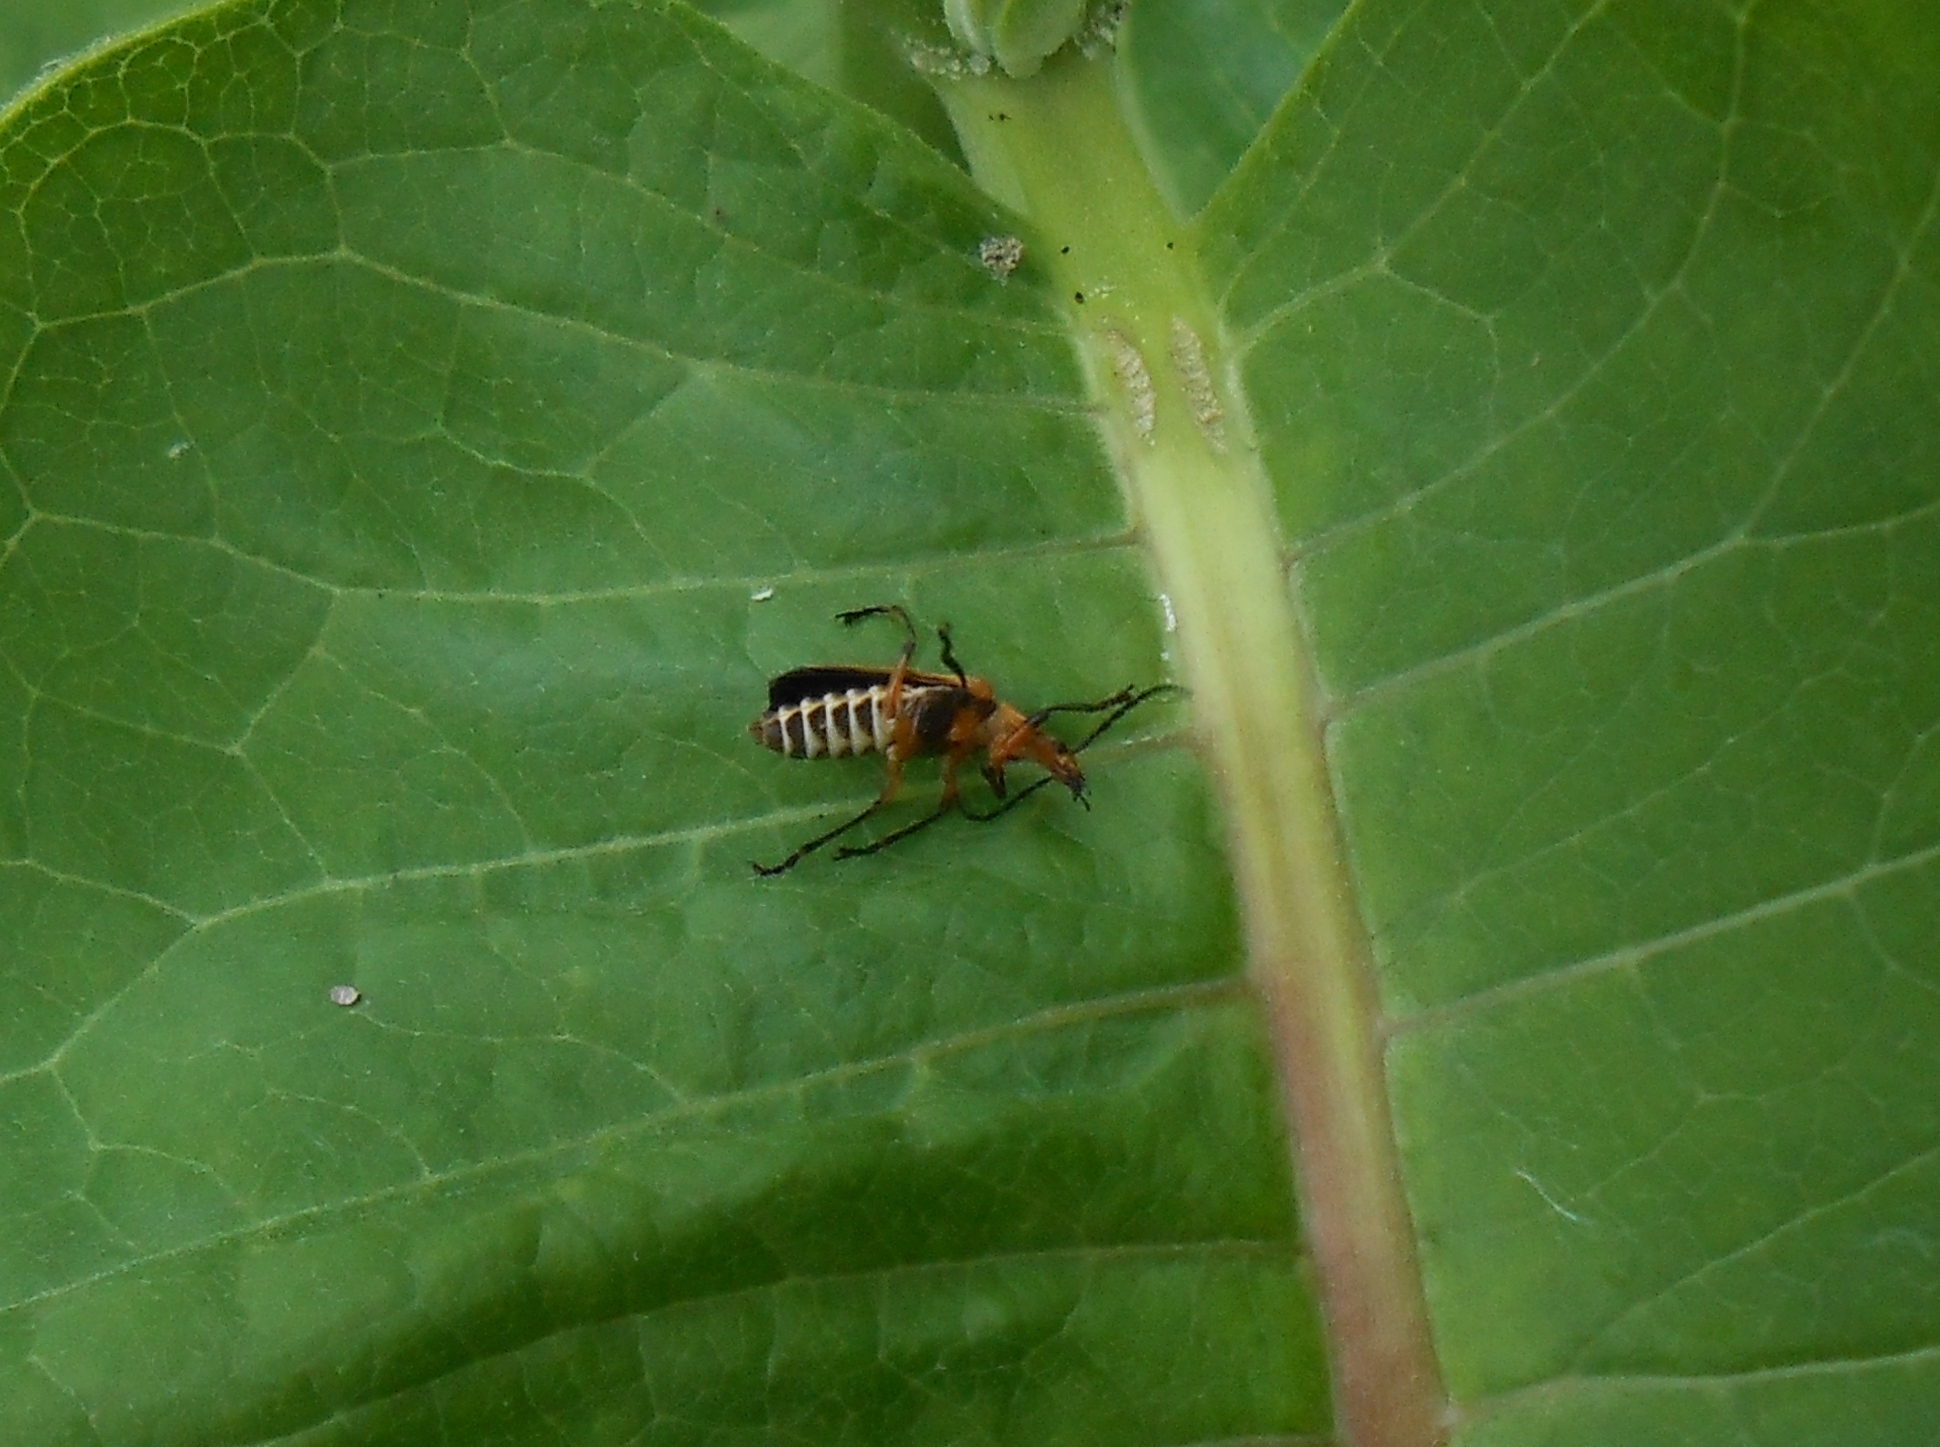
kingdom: Animalia
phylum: Arthropoda
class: Insecta
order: Coleoptera
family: Cantharidae
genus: Chauliognathus
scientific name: Chauliognathus marginatus
